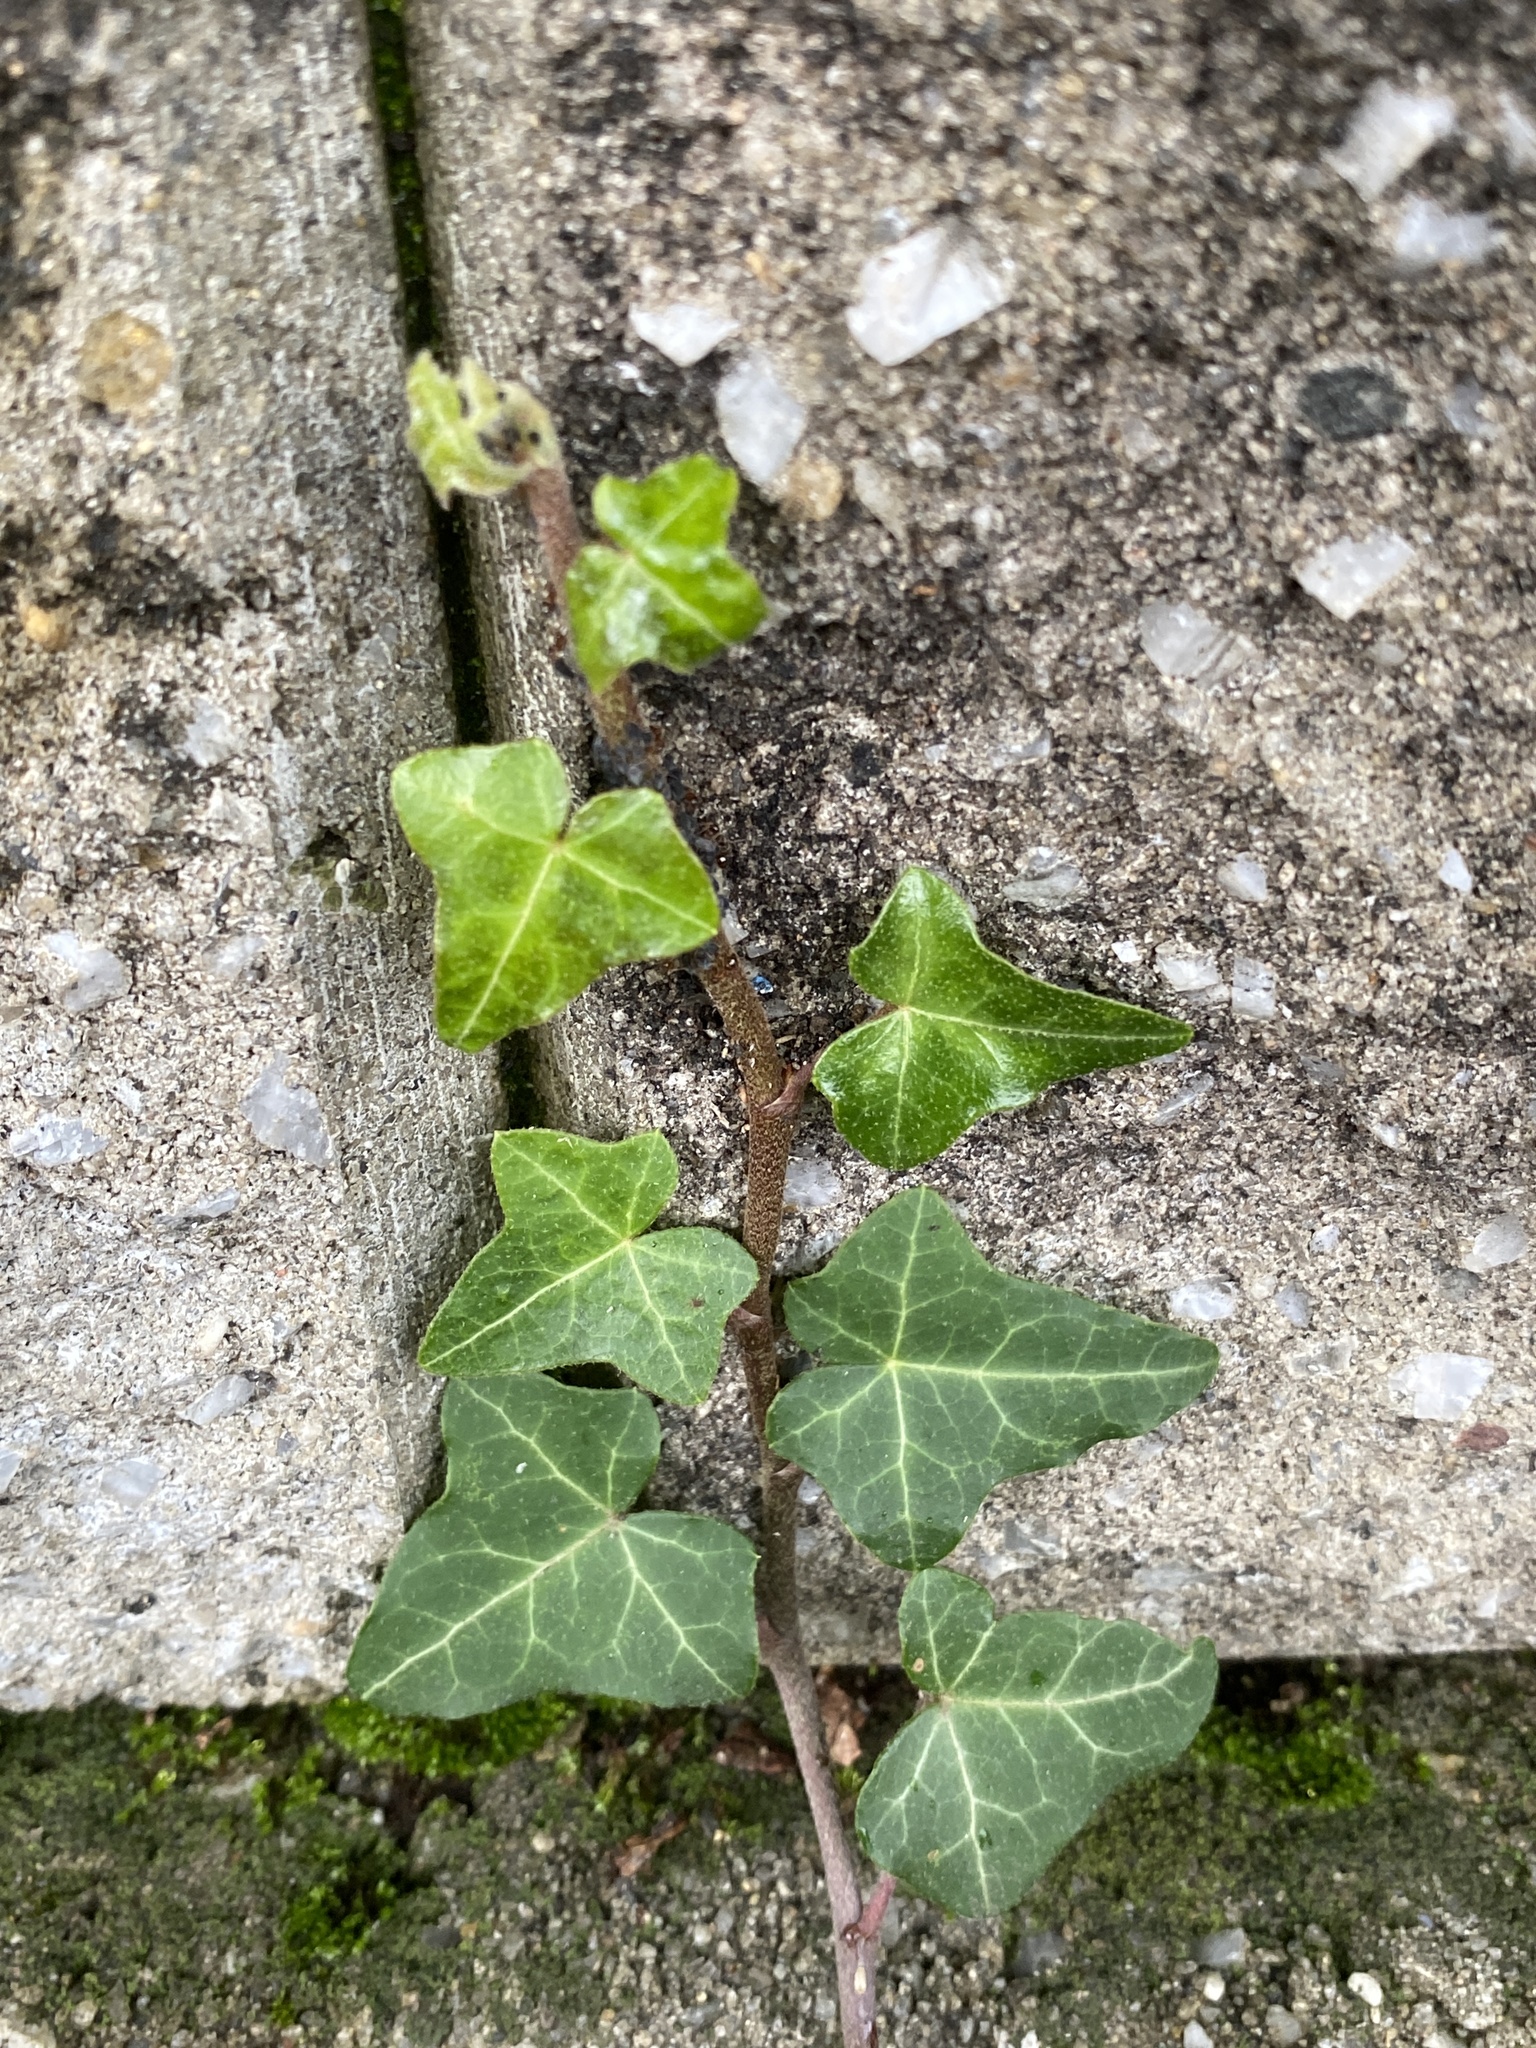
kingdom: Plantae
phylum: Tracheophyta
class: Magnoliopsida
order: Apiales
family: Araliaceae
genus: Hedera
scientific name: Hedera helix
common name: Ivy
